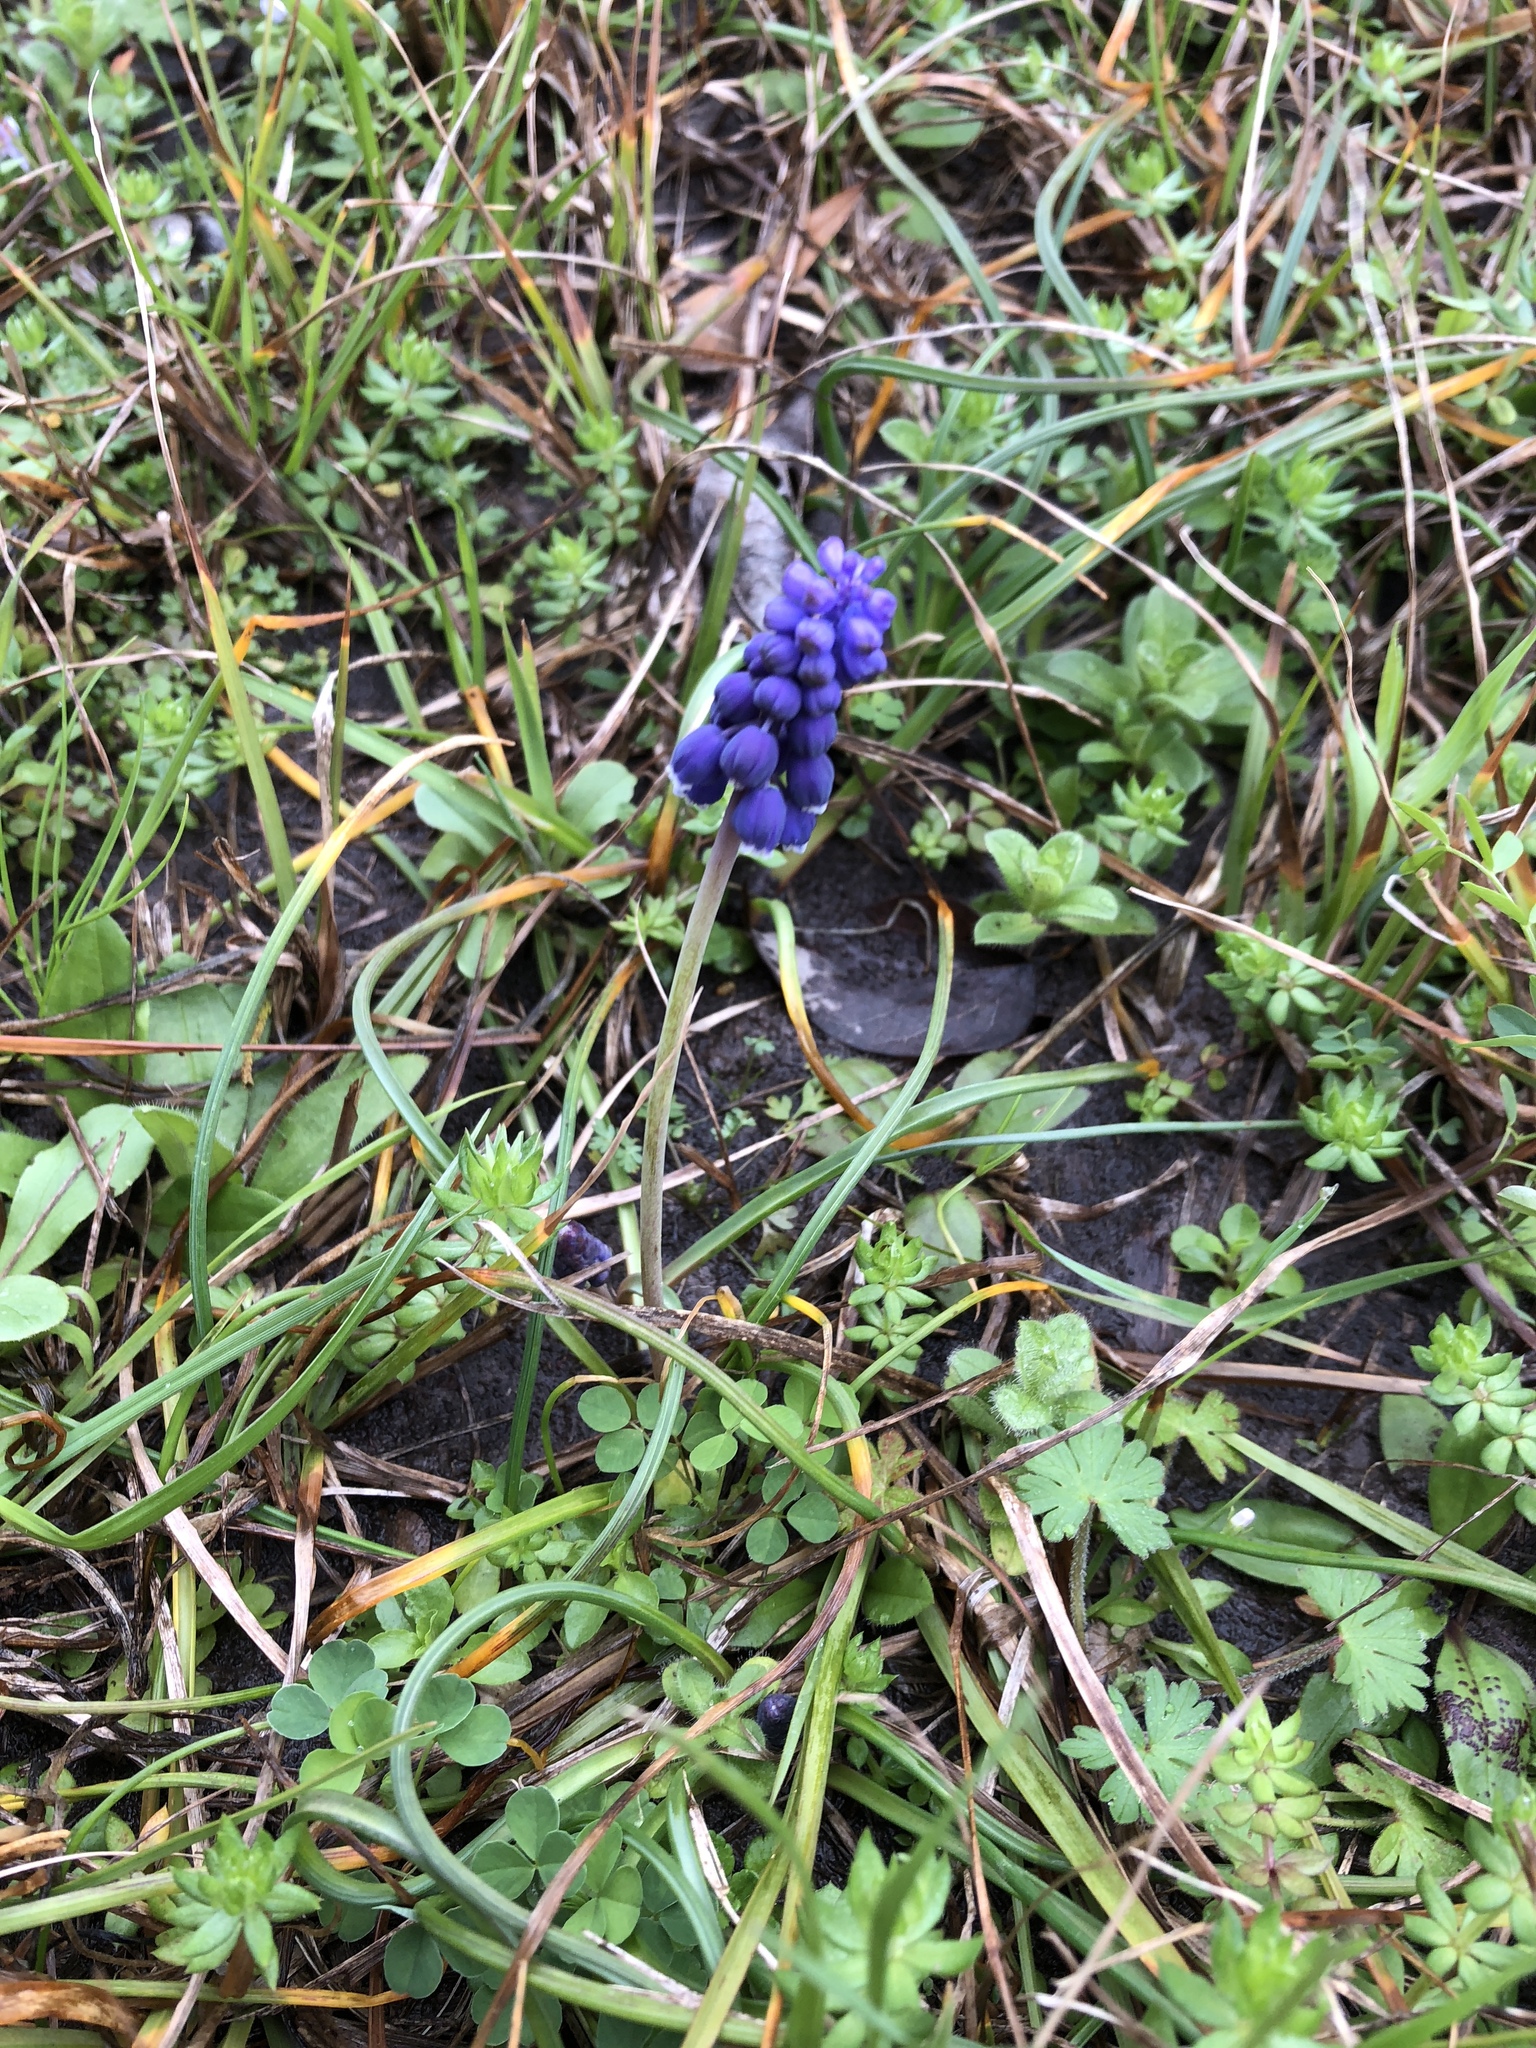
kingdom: Plantae
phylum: Tracheophyta
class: Liliopsida
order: Asparagales
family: Asparagaceae
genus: Muscari
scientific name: Muscari neglectum
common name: Grape-hyacinth
